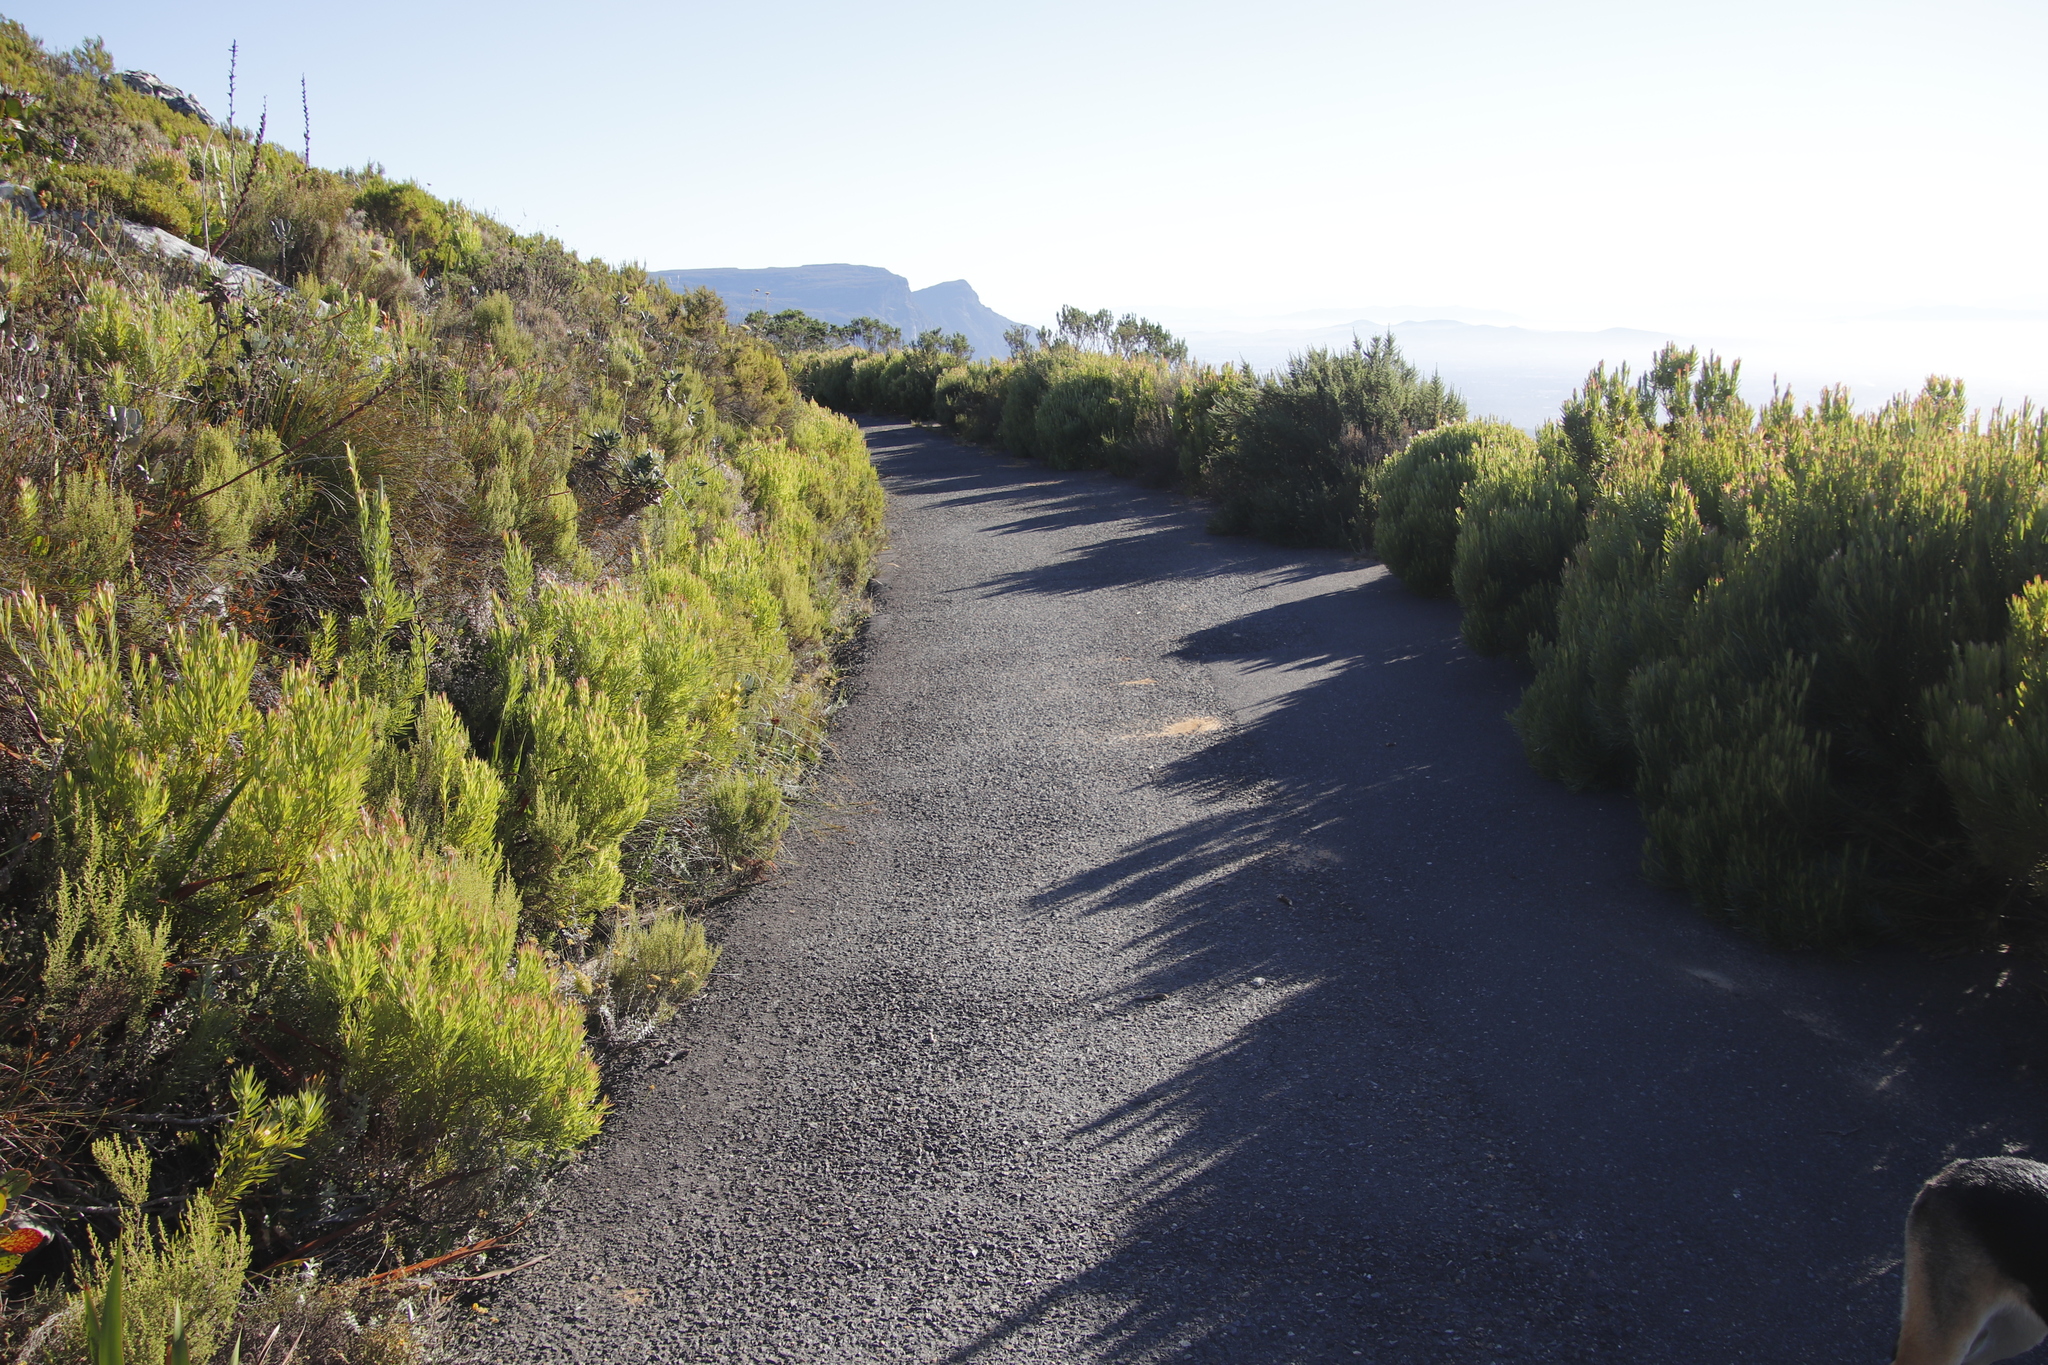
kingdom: Plantae
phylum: Tracheophyta
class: Magnoliopsida
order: Proteales
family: Proteaceae
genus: Leucadendron
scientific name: Leucadendron xanthoconus
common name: Sickle-leaf conebush
